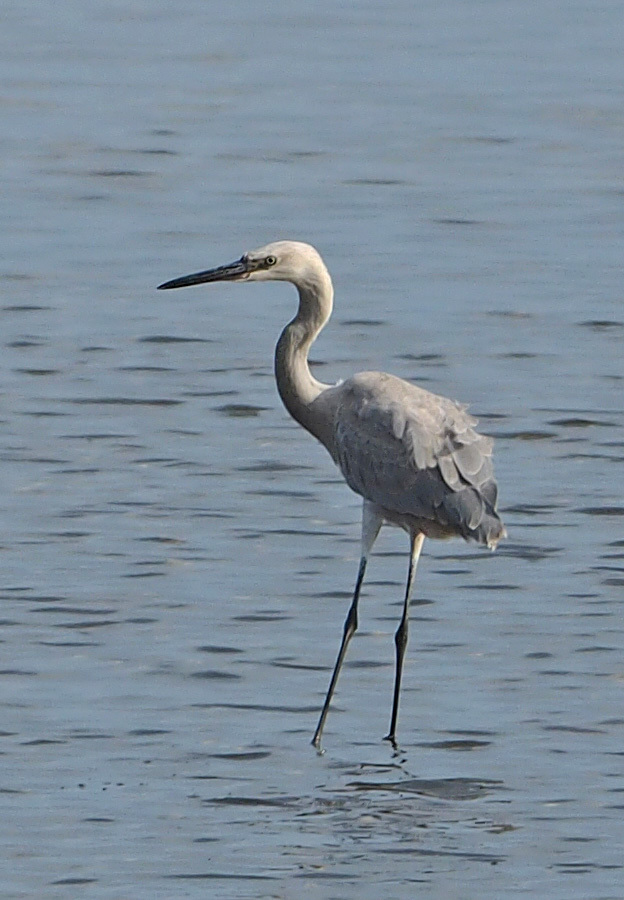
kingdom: Animalia
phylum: Chordata
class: Aves
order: Pelecaniformes
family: Ardeidae
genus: Egretta
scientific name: Egretta rufescens
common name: Reddish egret
